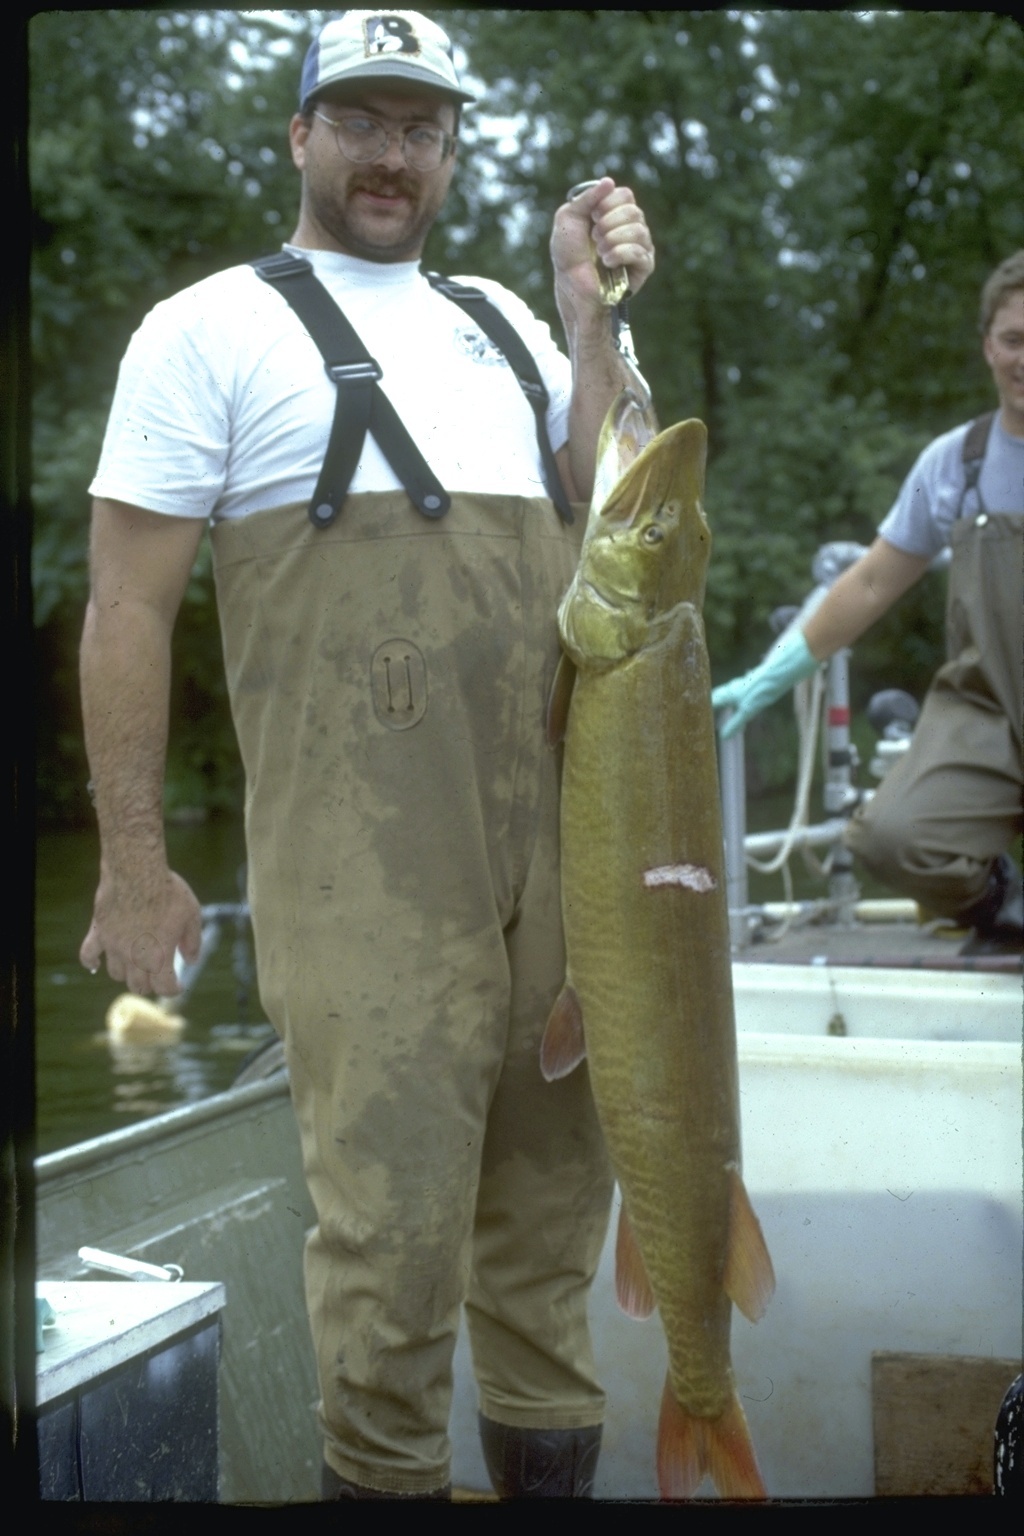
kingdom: Animalia
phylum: Chordata
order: Esociformes
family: Esocidae
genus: Esox
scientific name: Esox masquinongy
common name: Muskellunge
